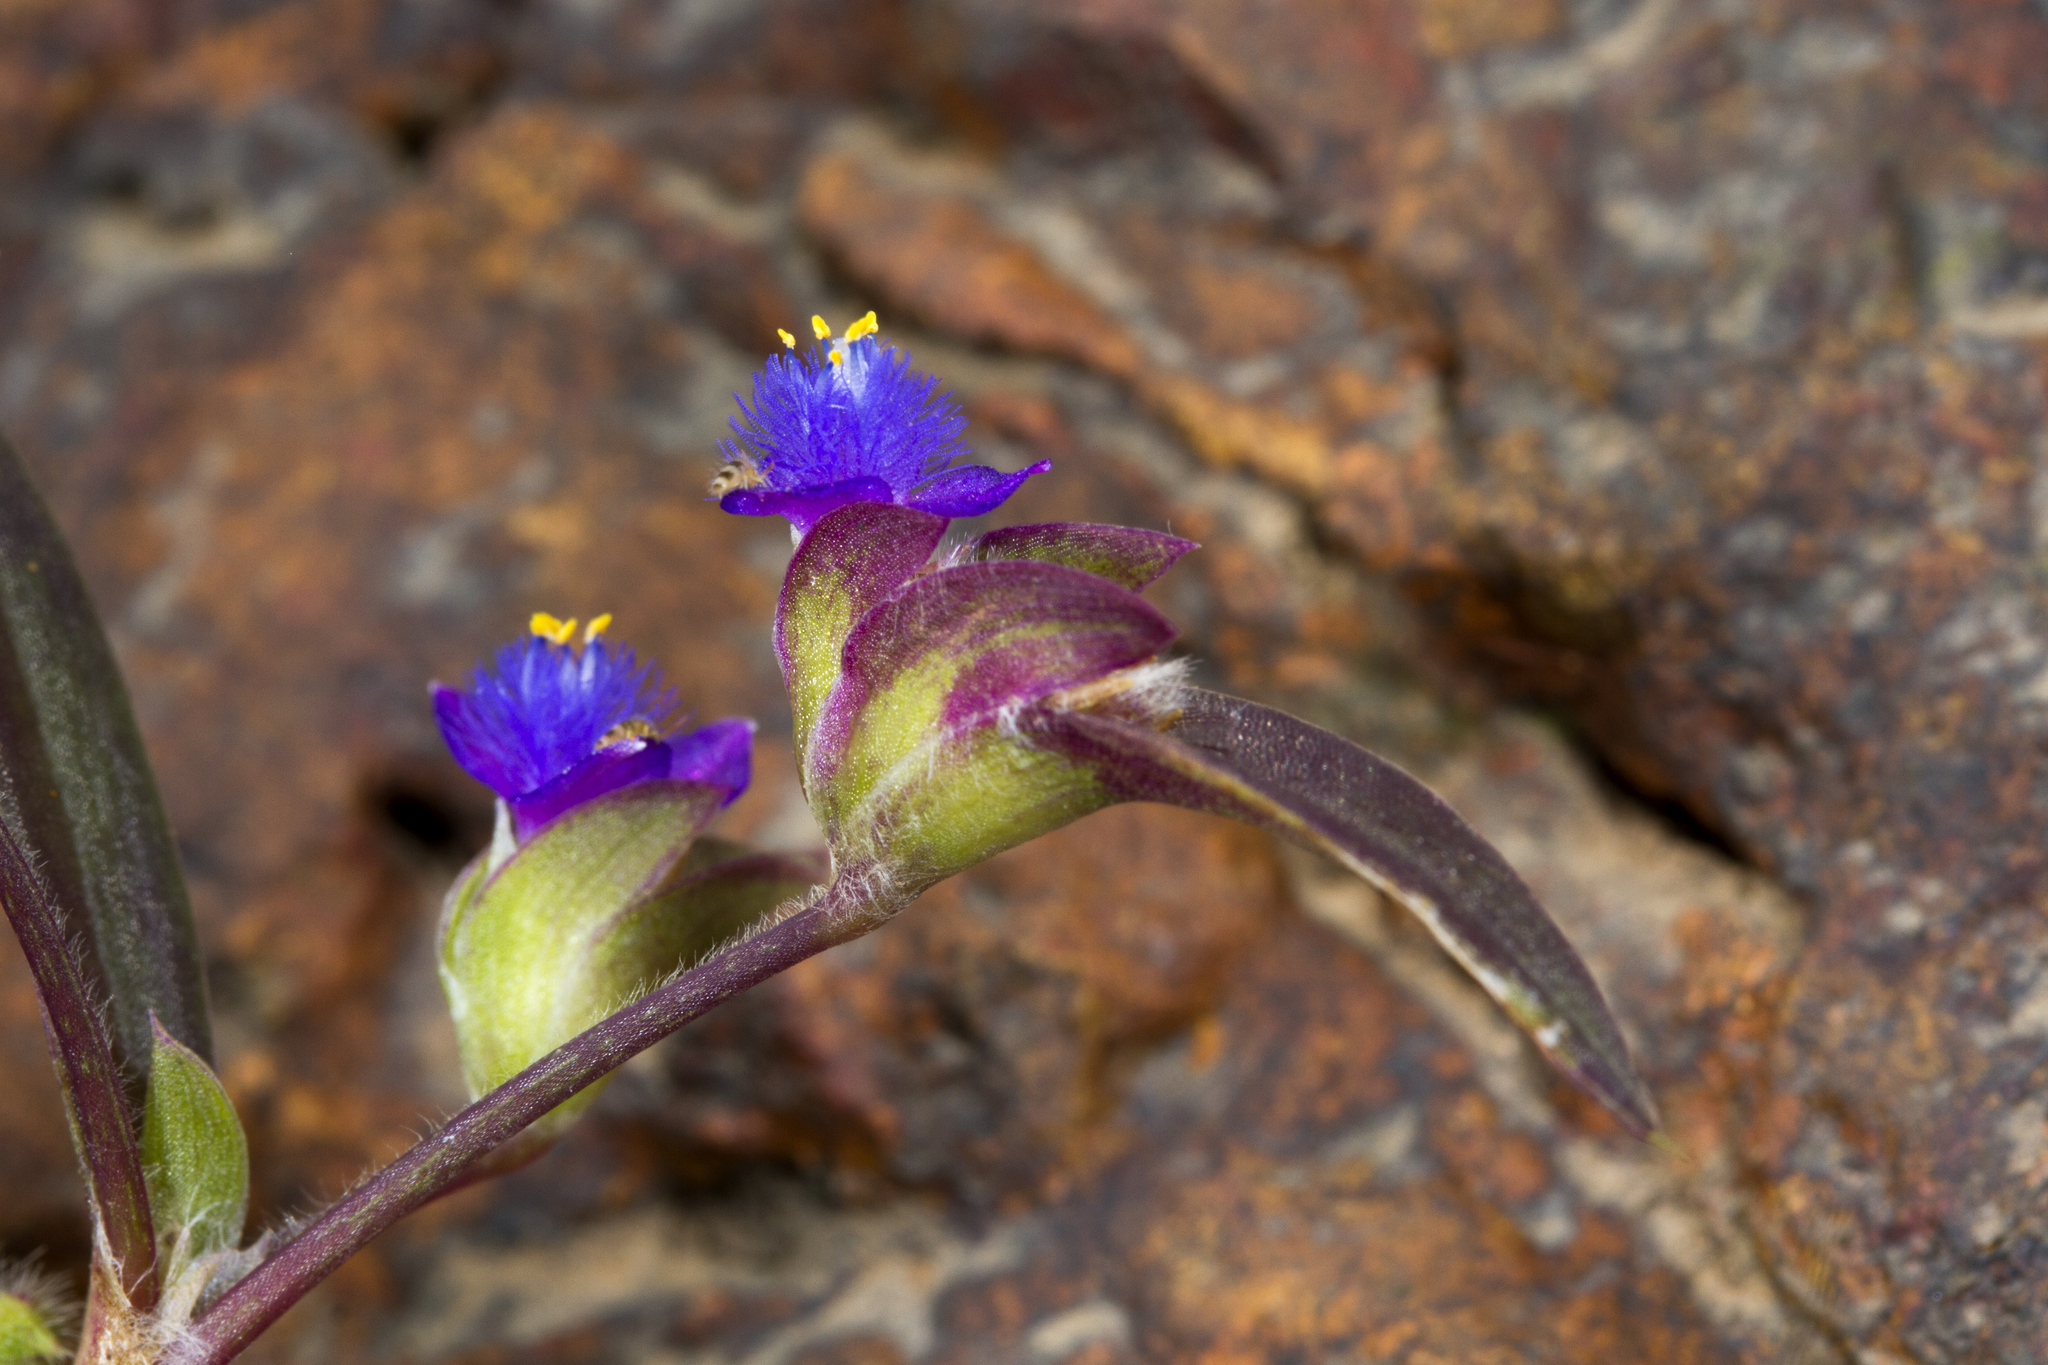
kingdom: Plantae
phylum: Tracheophyta
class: Liliopsida
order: Commelinales
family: Commelinaceae
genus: Cyanotis
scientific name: Cyanotis fasciculata
